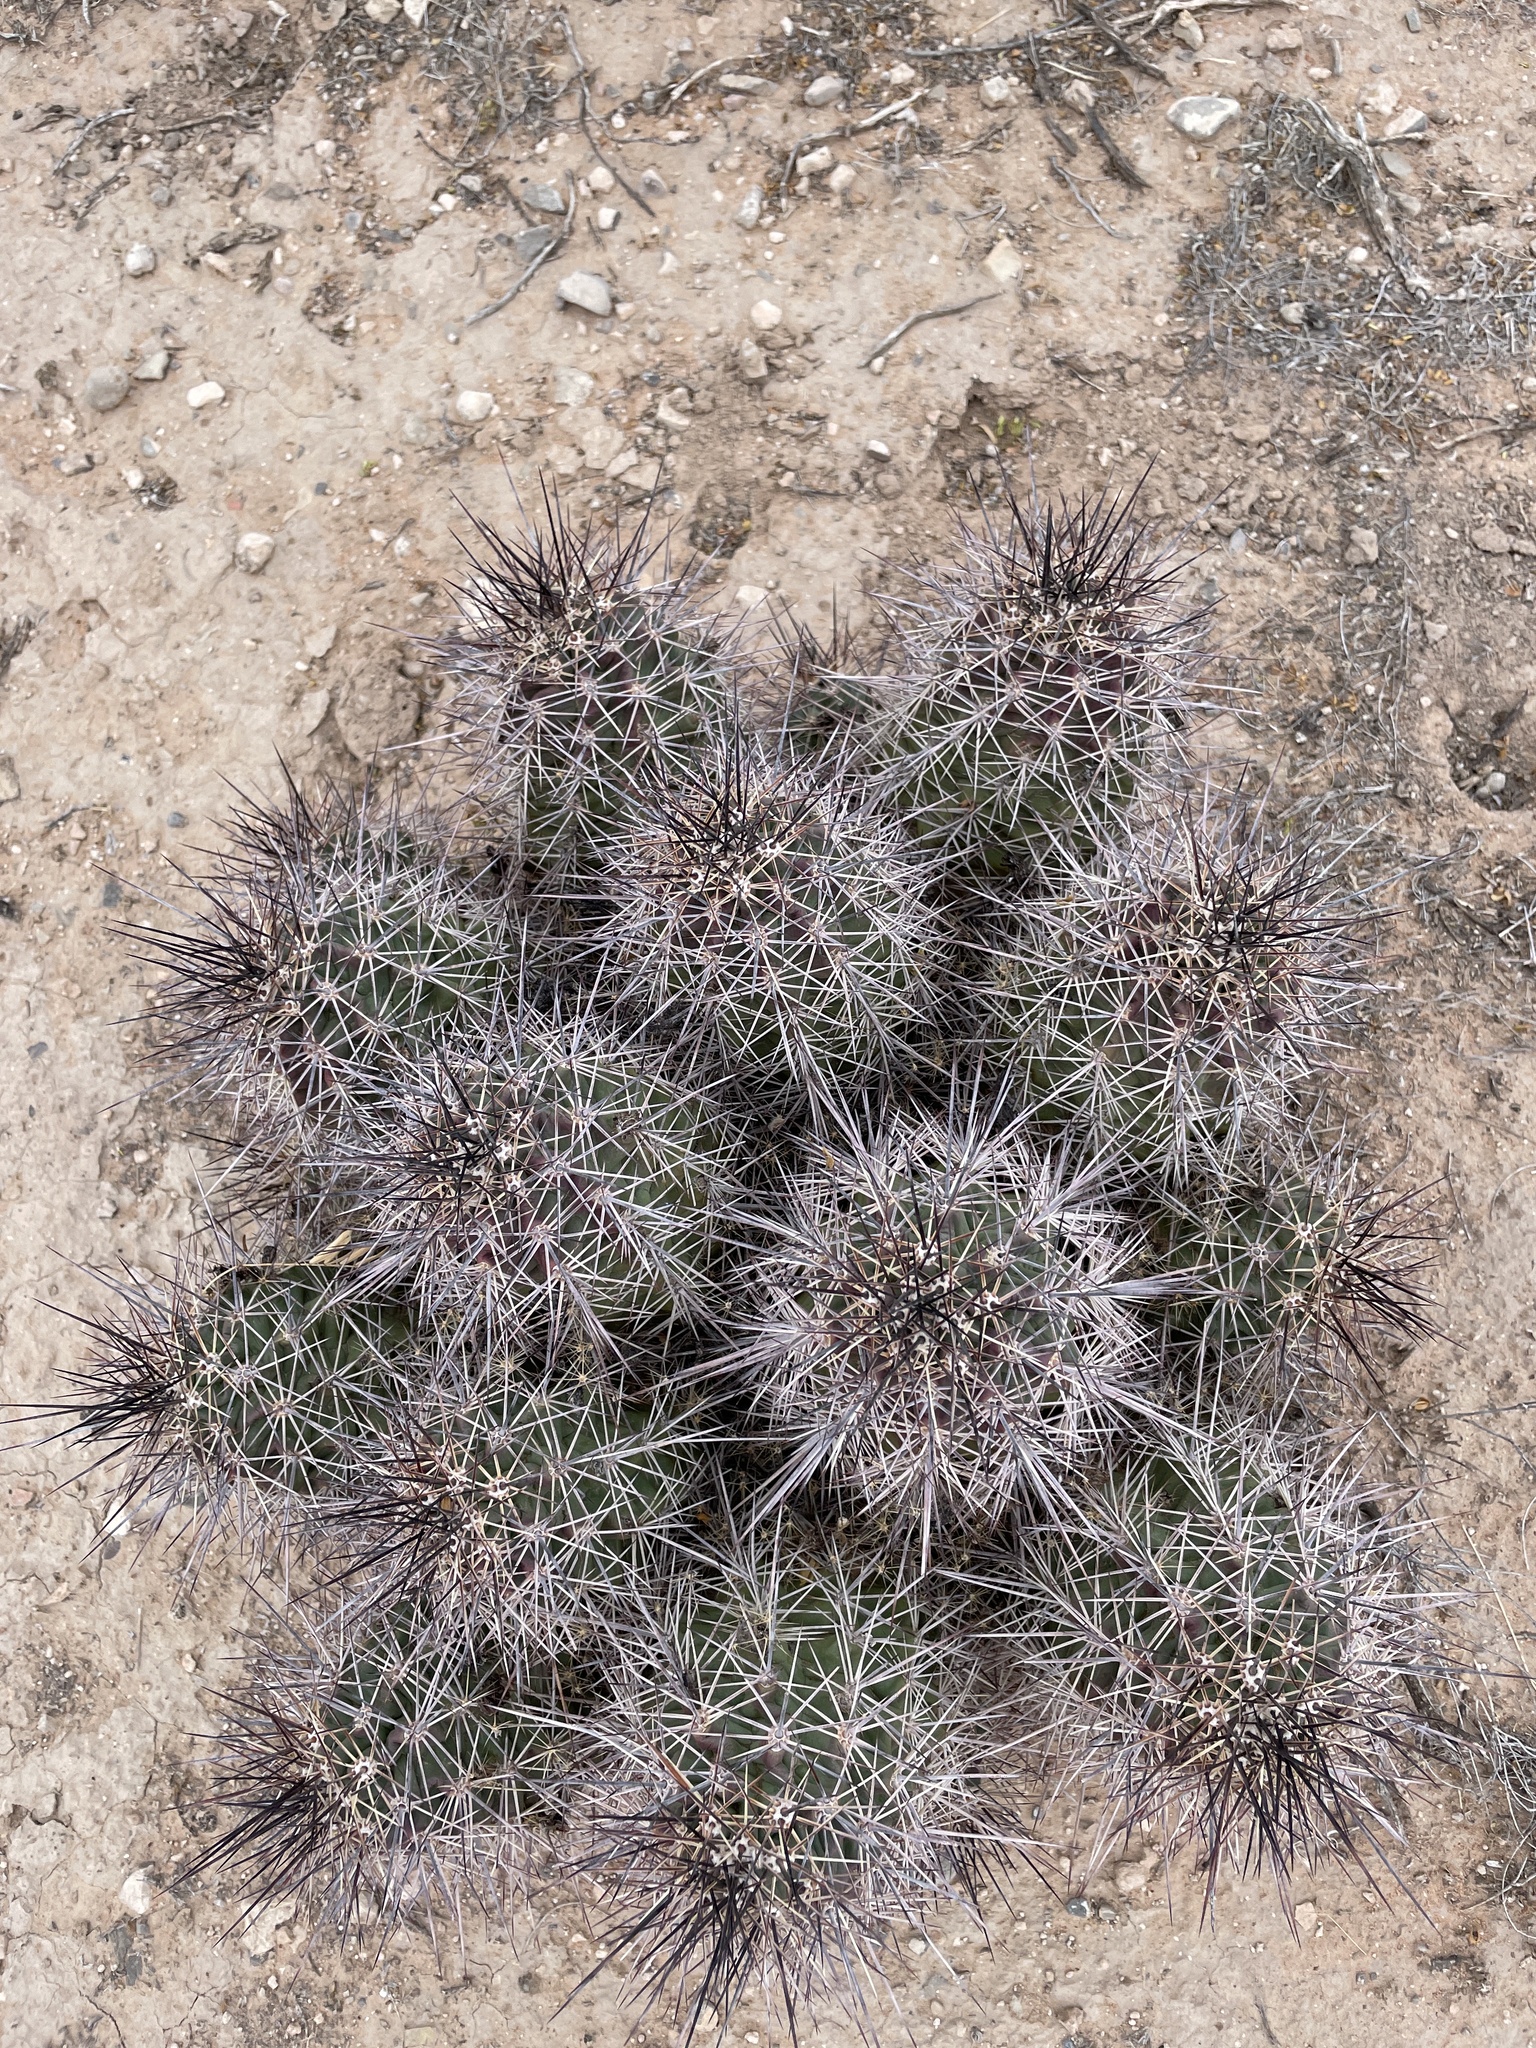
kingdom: Plantae
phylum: Tracheophyta
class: Magnoliopsida
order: Caryophyllales
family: Cactaceae
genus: Echinocereus
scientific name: Echinocereus coccineus
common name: Scarlet hedgehog cactus
